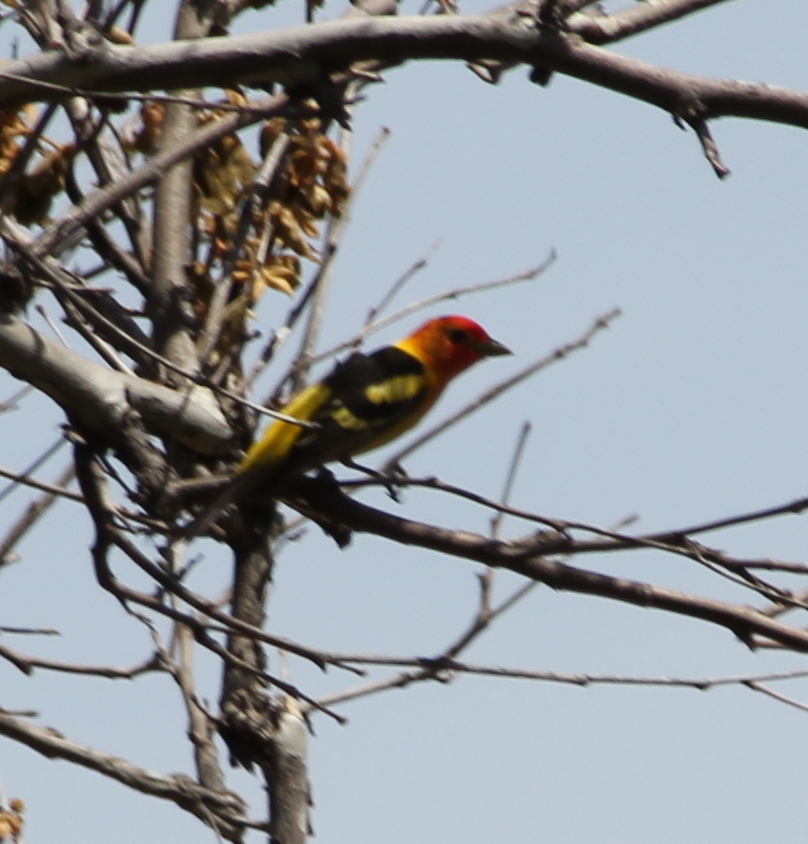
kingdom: Animalia
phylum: Chordata
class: Aves
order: Passeriformes
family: Cardinalidae
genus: Piranga
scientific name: Piranga ludoviciana
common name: Western tanager
